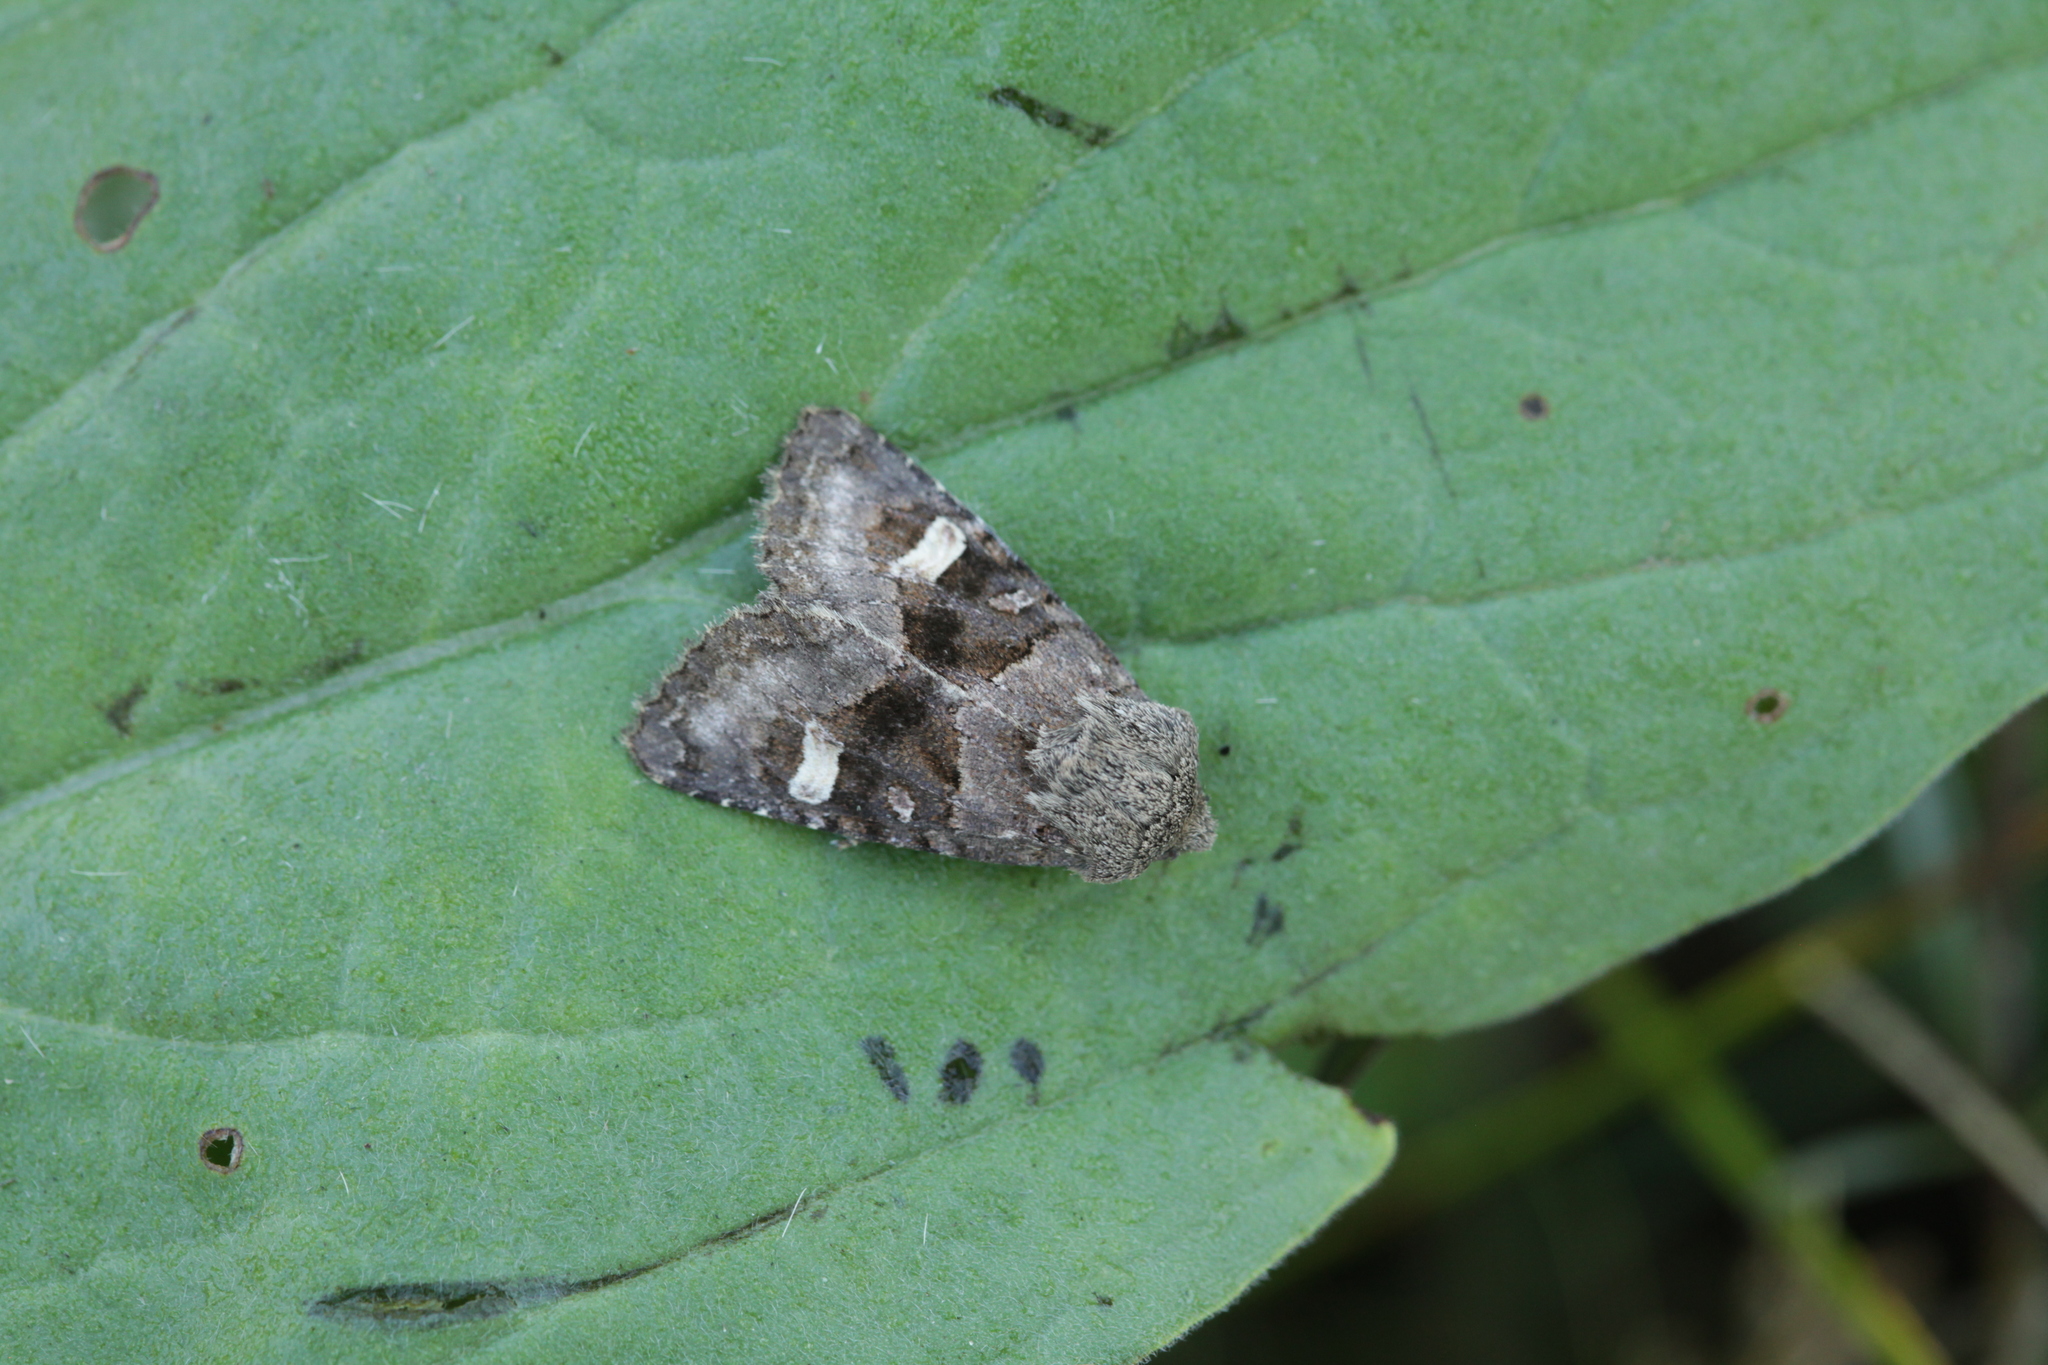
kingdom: Animalia
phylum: Arthropoda
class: Insecta
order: Lepidoptera
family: Noctuidae
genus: Nyssocnemis
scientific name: Nyssocnemis eversmanni
